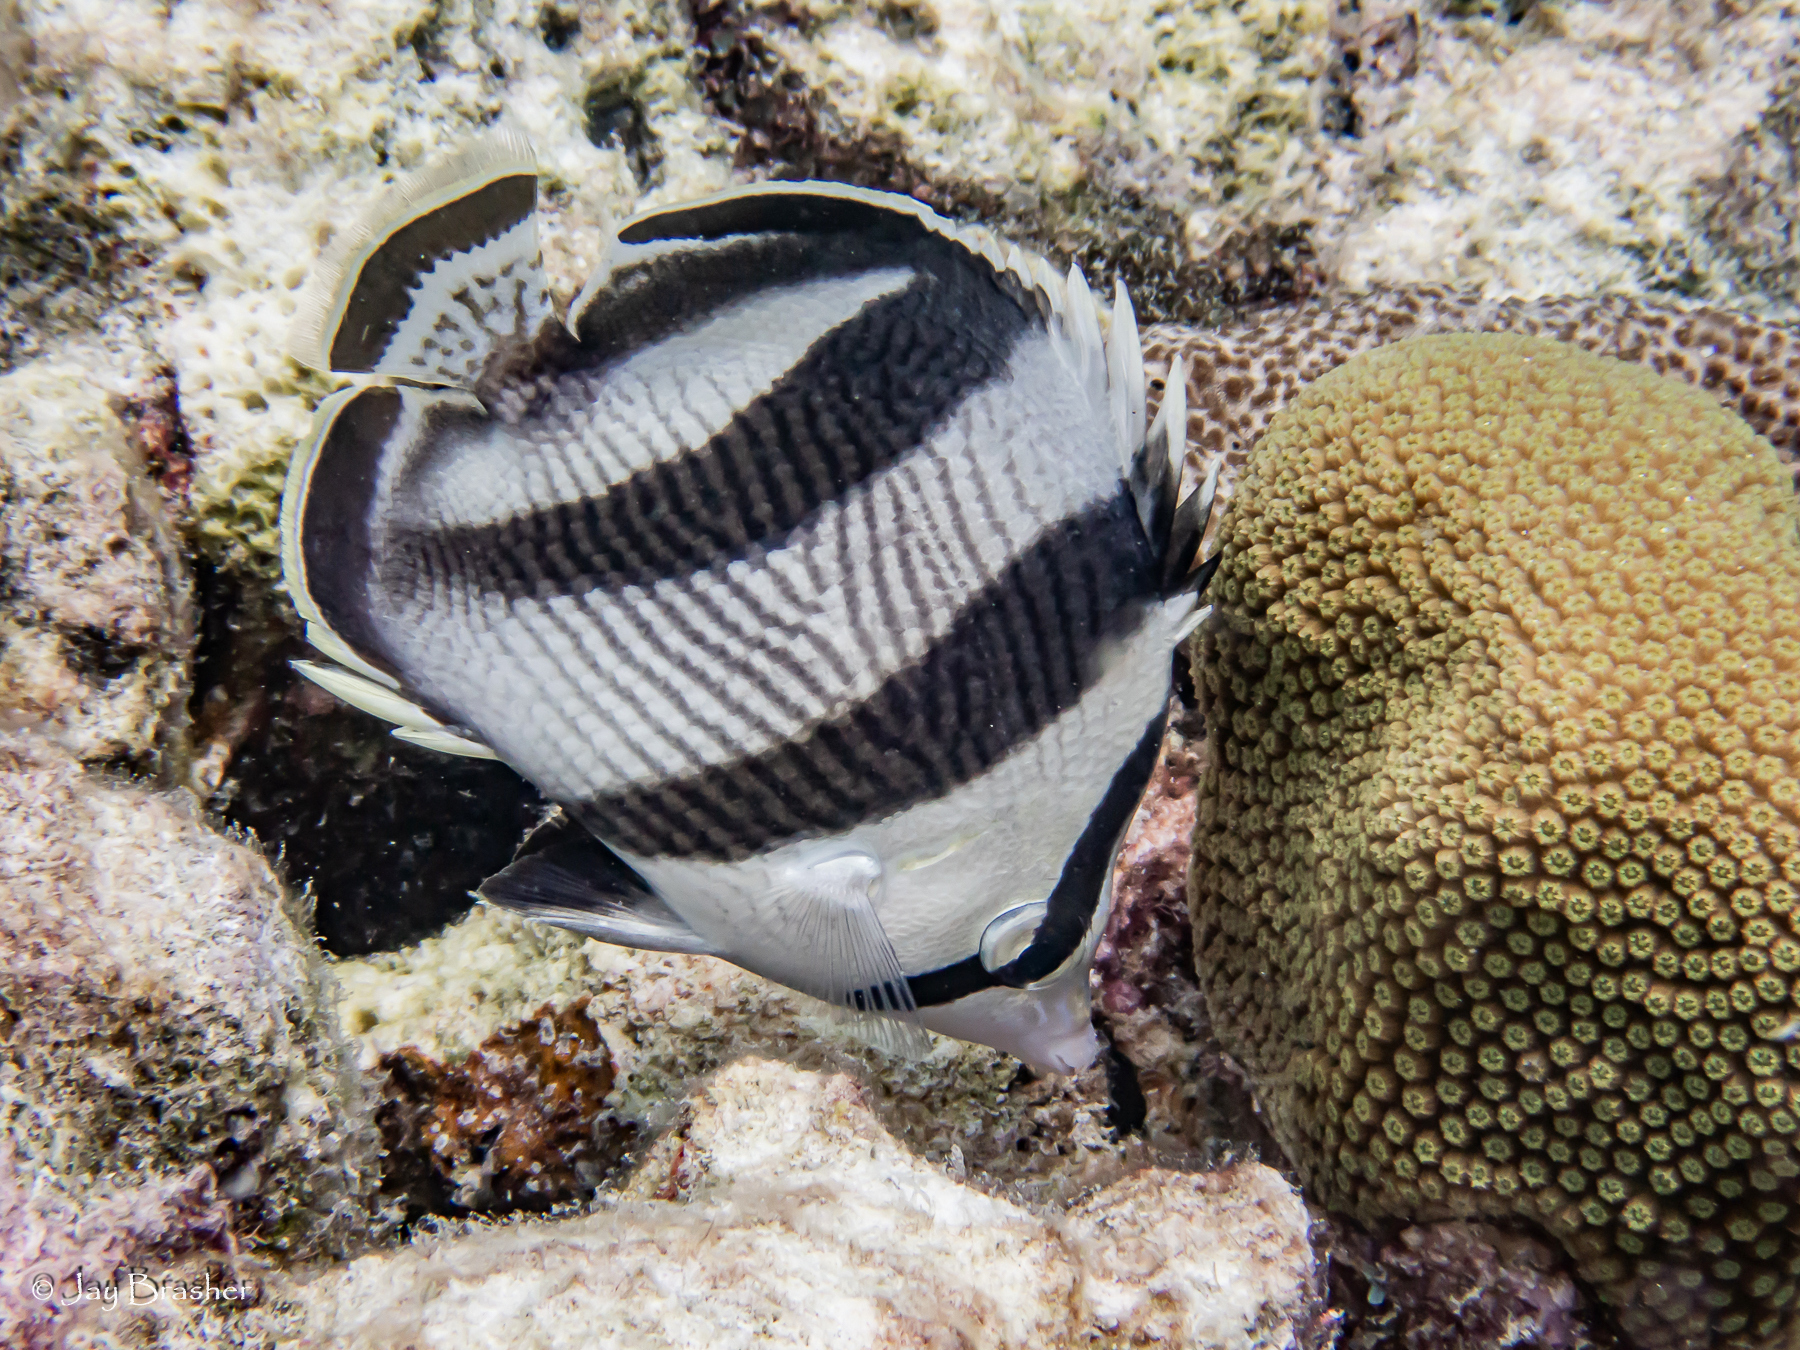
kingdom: Animalia
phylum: Chordata
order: Perciformes
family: Chaetodontidae
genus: Chaetodon
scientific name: Chaetodon striatus
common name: Banded butterflyfish
